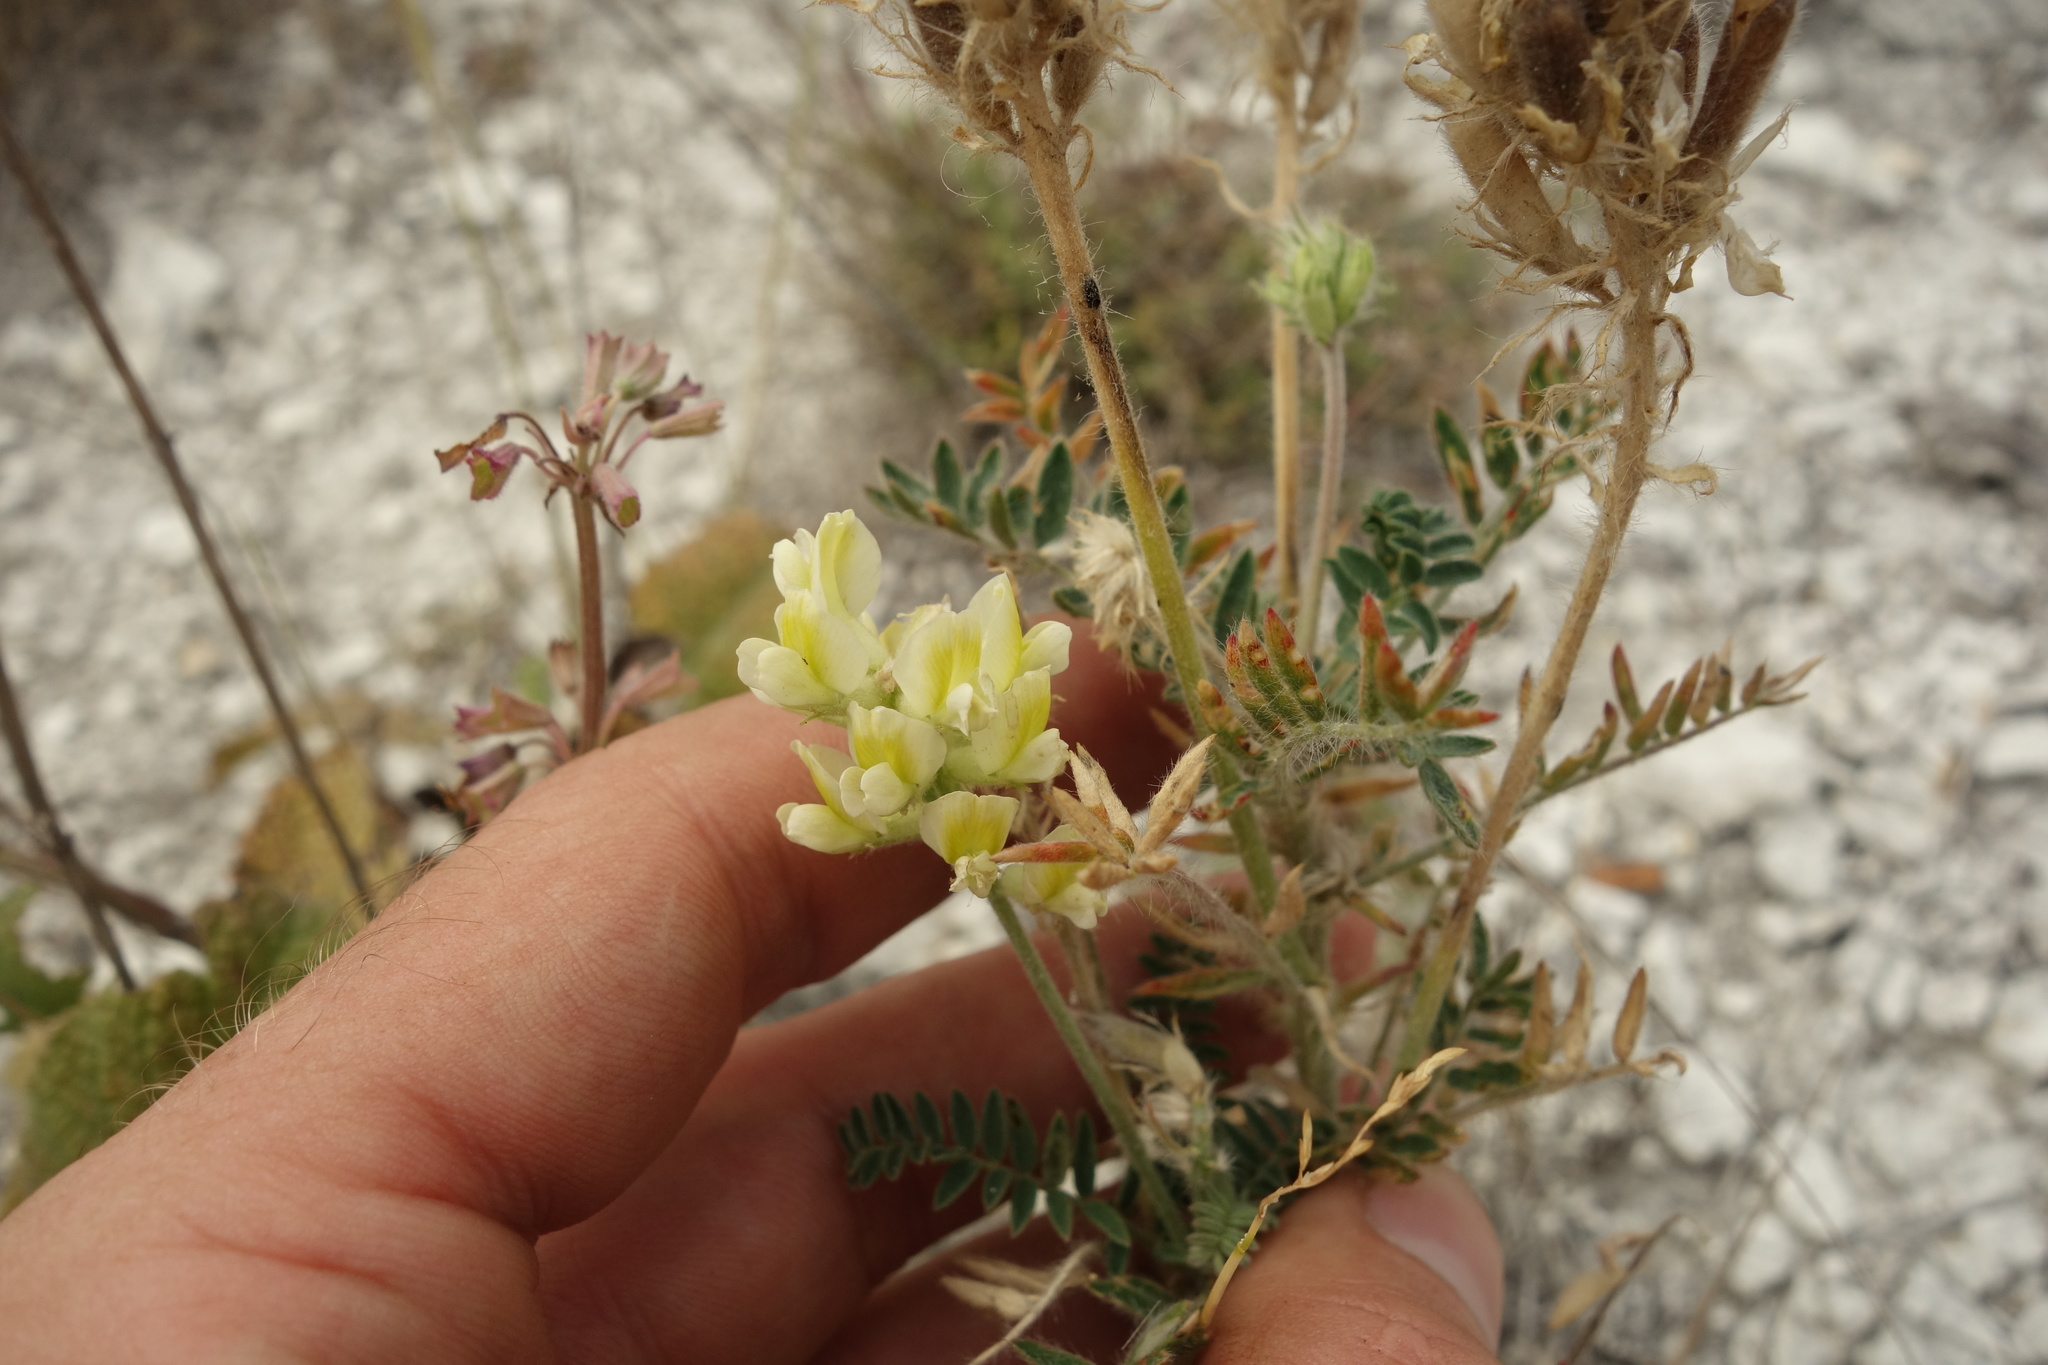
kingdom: Plantae
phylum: Tracheophyta
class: Magnoliopsida
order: Fabales
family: Fabaceae
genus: Oxytropis
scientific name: Oxytropis pilosa
